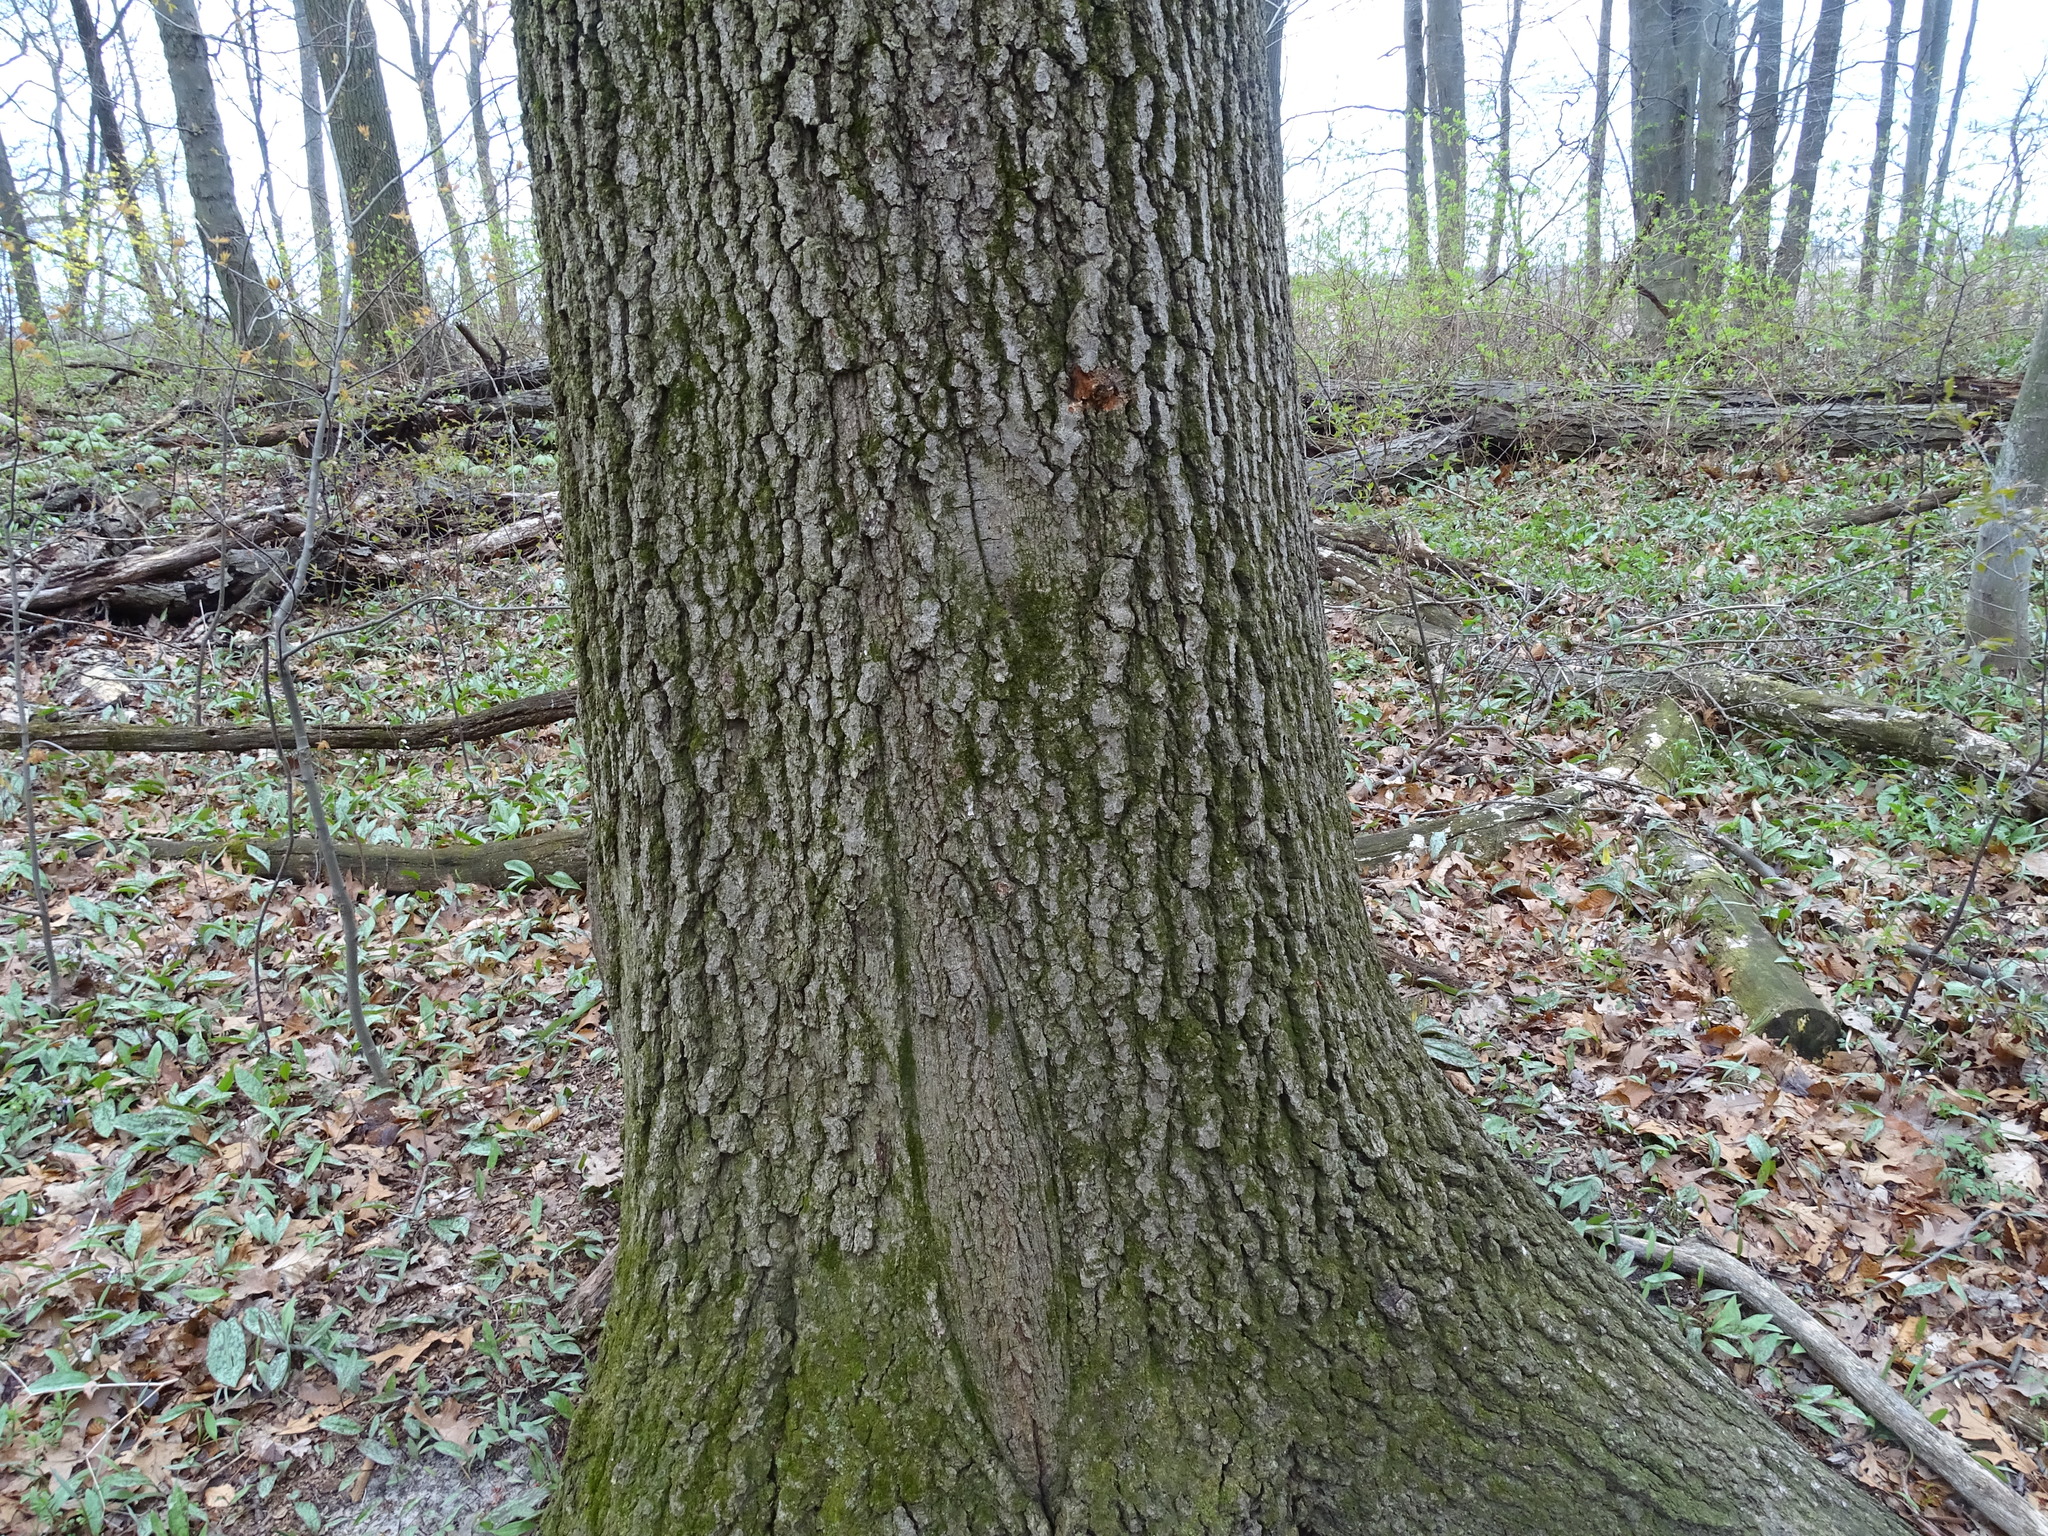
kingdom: Plantae
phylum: Tracheophyta
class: Magnoliopsida
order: Fagales
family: Fagaceae
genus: Quercus
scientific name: Quercus velutina
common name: Black oak
